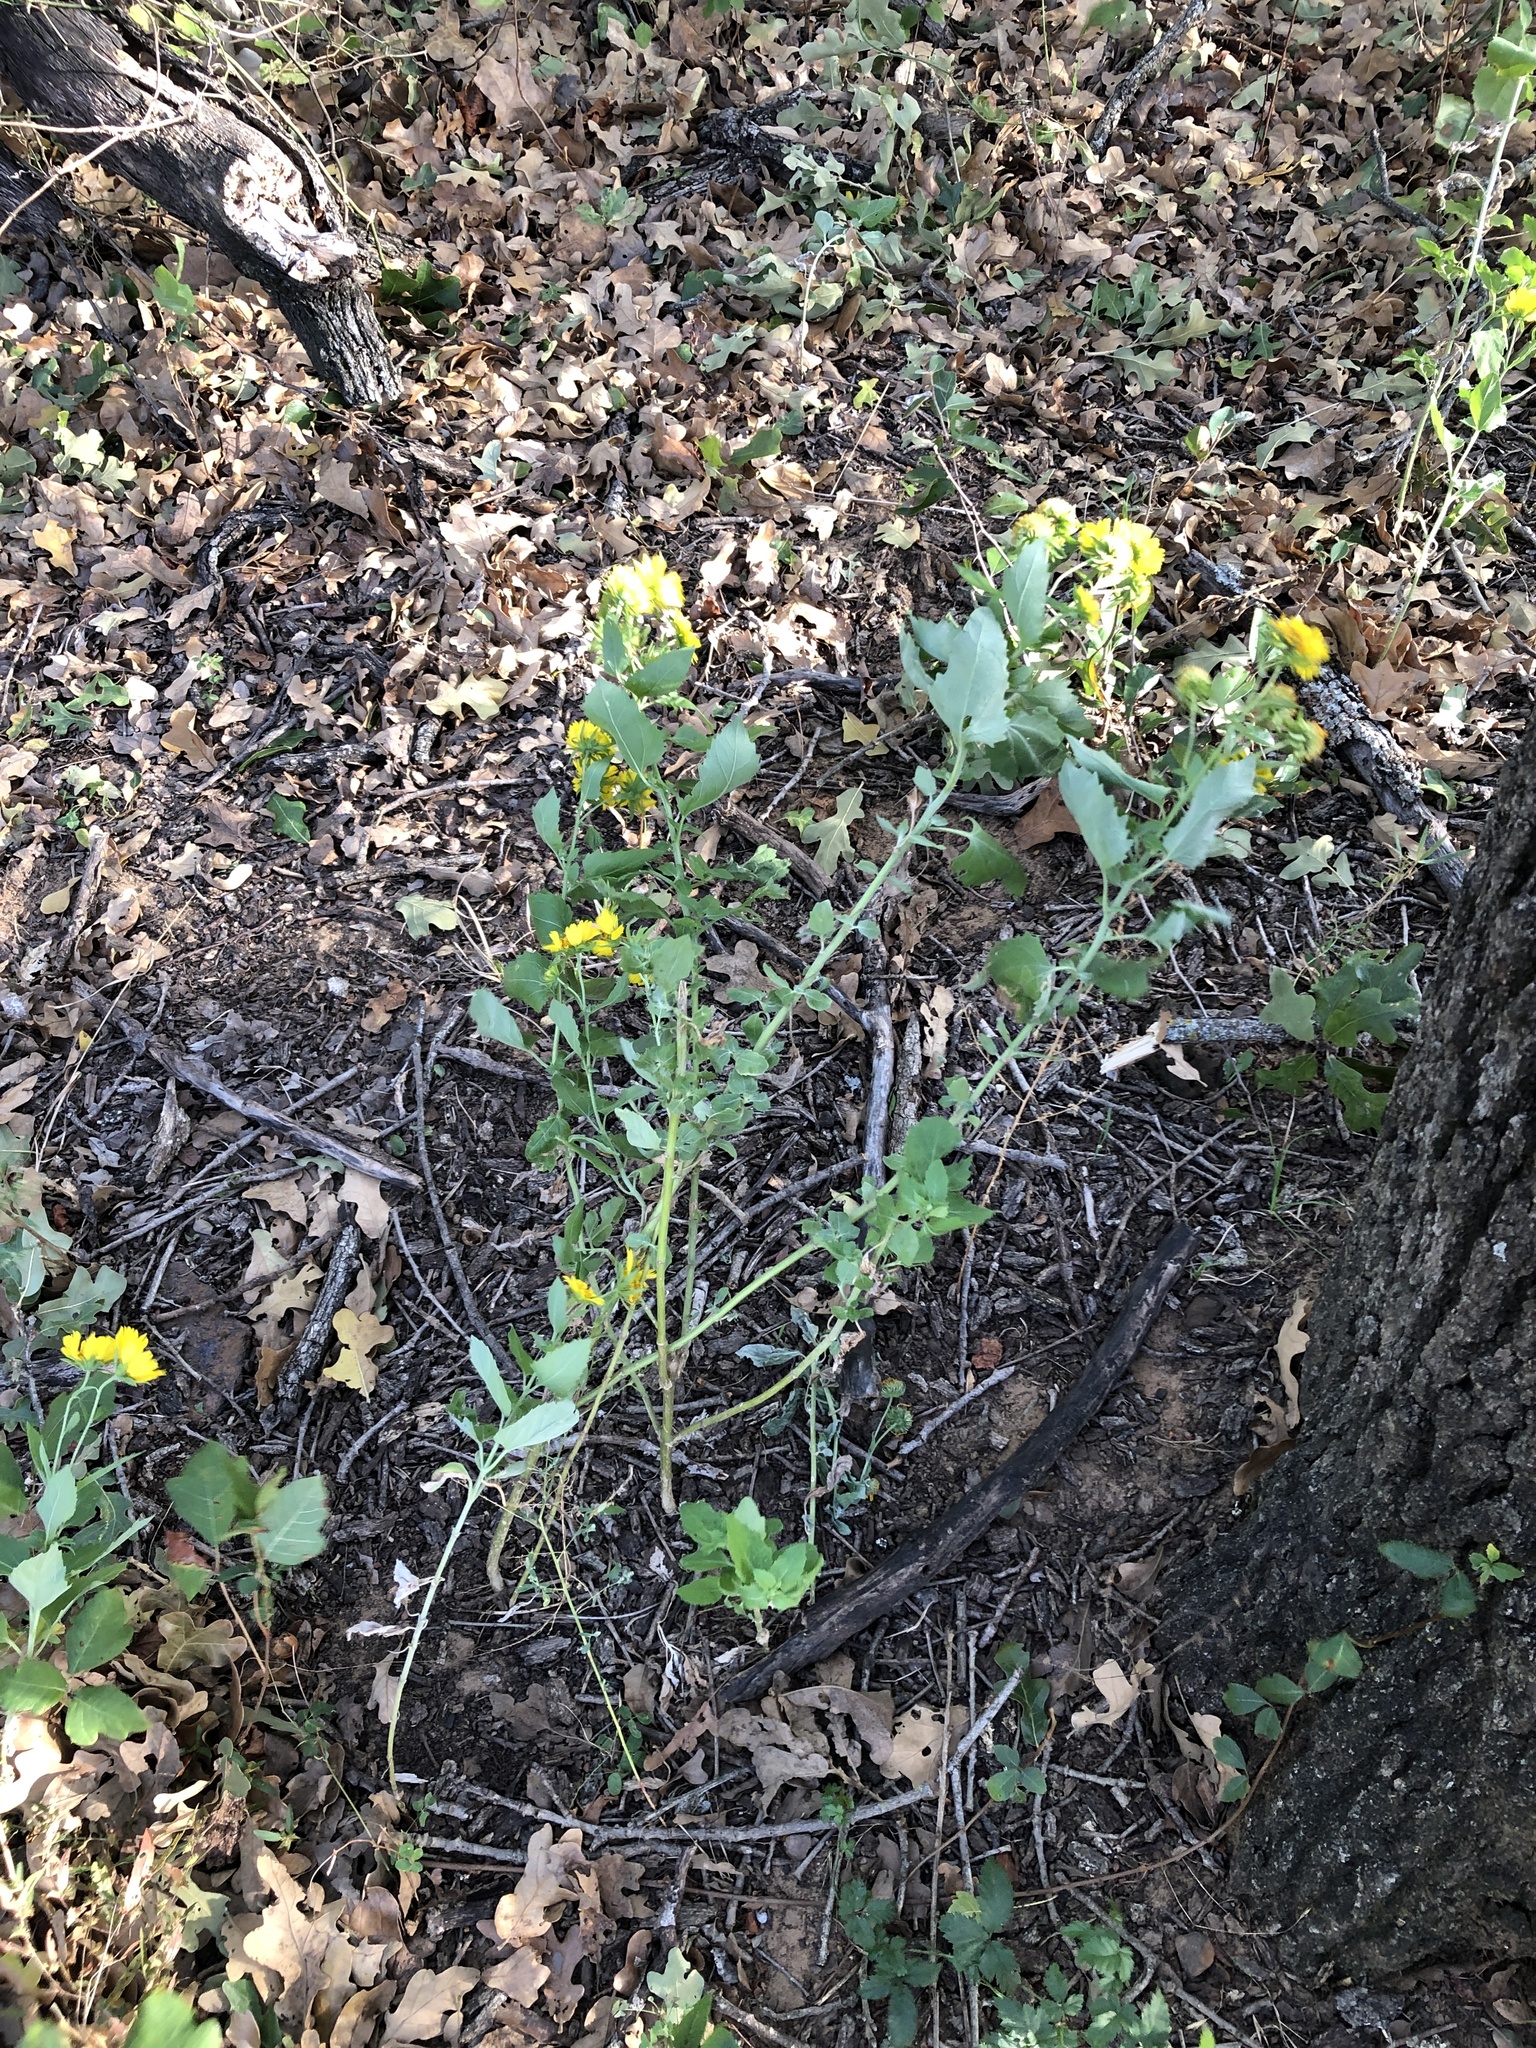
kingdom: Plantae
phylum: Tracheophyta
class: Magnoliopsida
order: Asterales
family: Asteraceae
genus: Verbesina
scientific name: Verbesina encelioides
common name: Golden crownbeard
